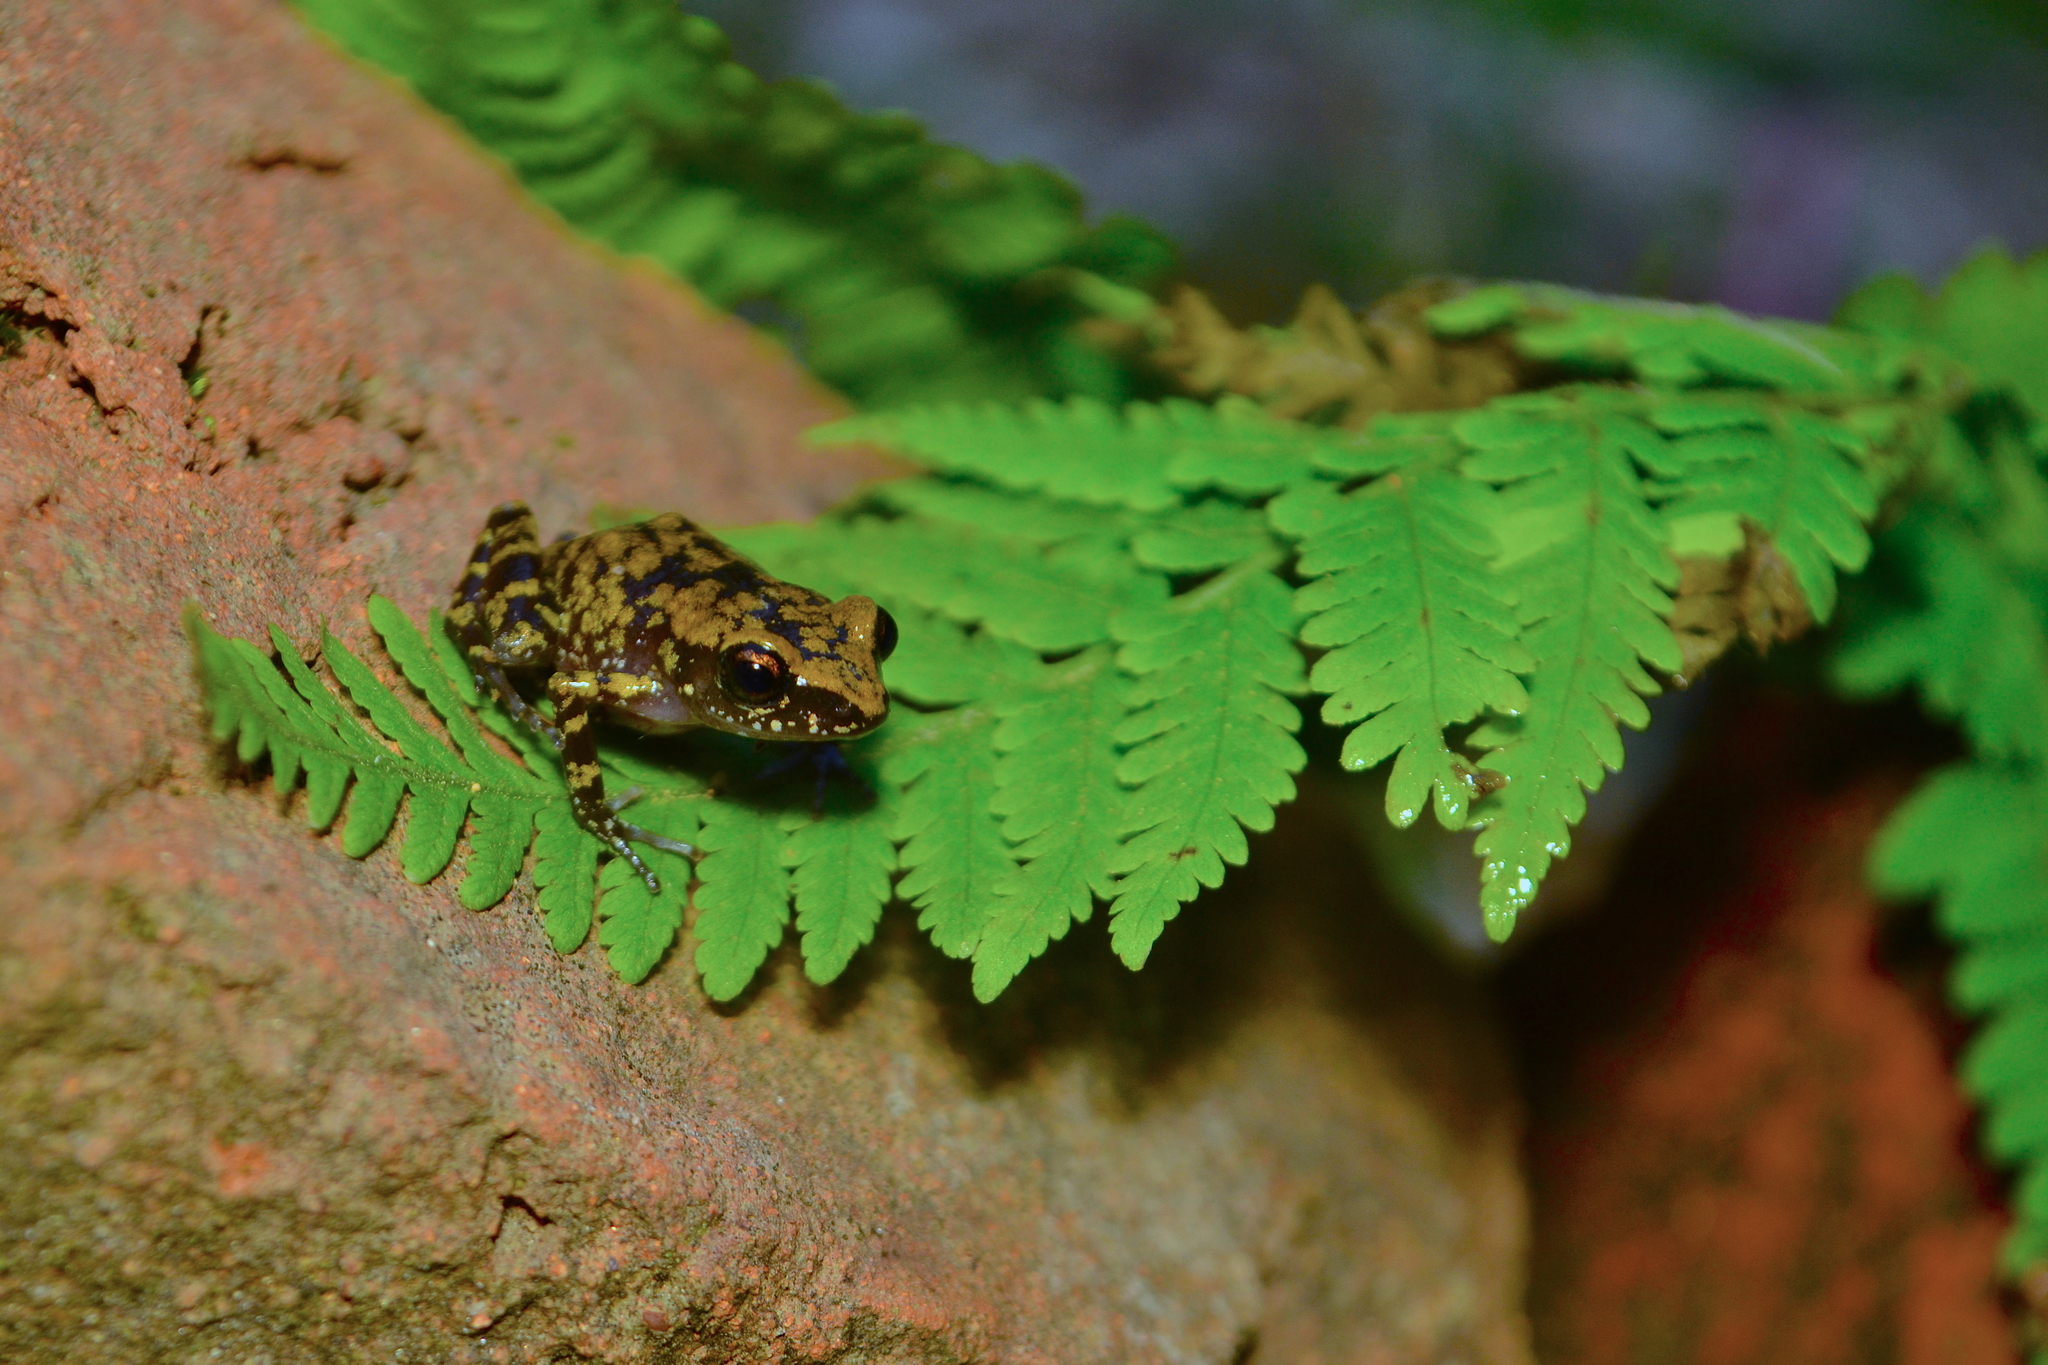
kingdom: Animalia
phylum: Chordata
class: Amphibia
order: Anura
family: Eleutherodactylidae
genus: Eleutherodactylus
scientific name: Eleutherodactylus leprus
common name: Leprus chirping frog
